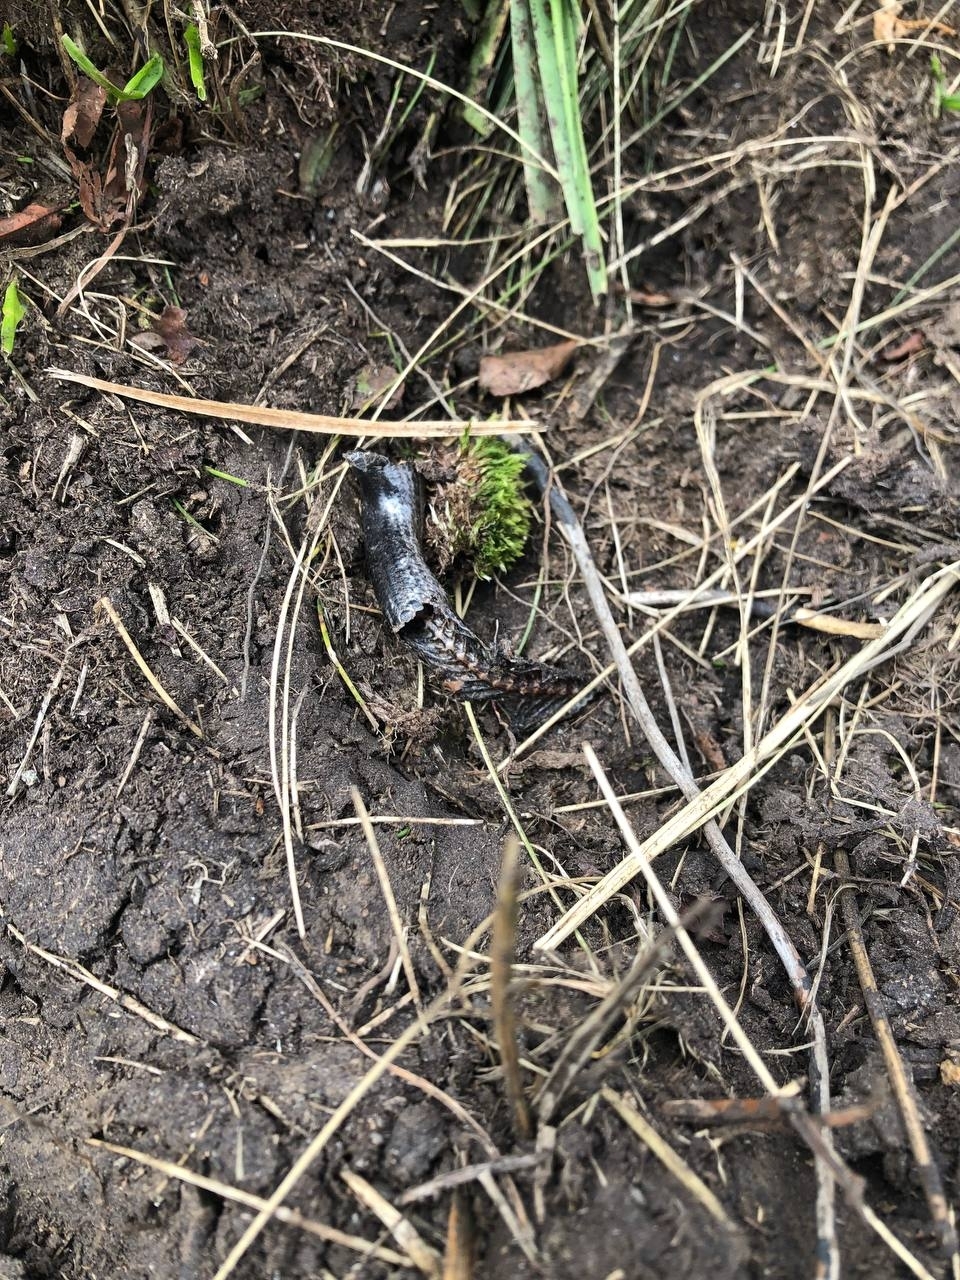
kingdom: Animalia
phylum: Chordata
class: Squamata
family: Anguidae
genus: Anguis
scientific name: Anguis veronensis
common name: Italian slow worm
